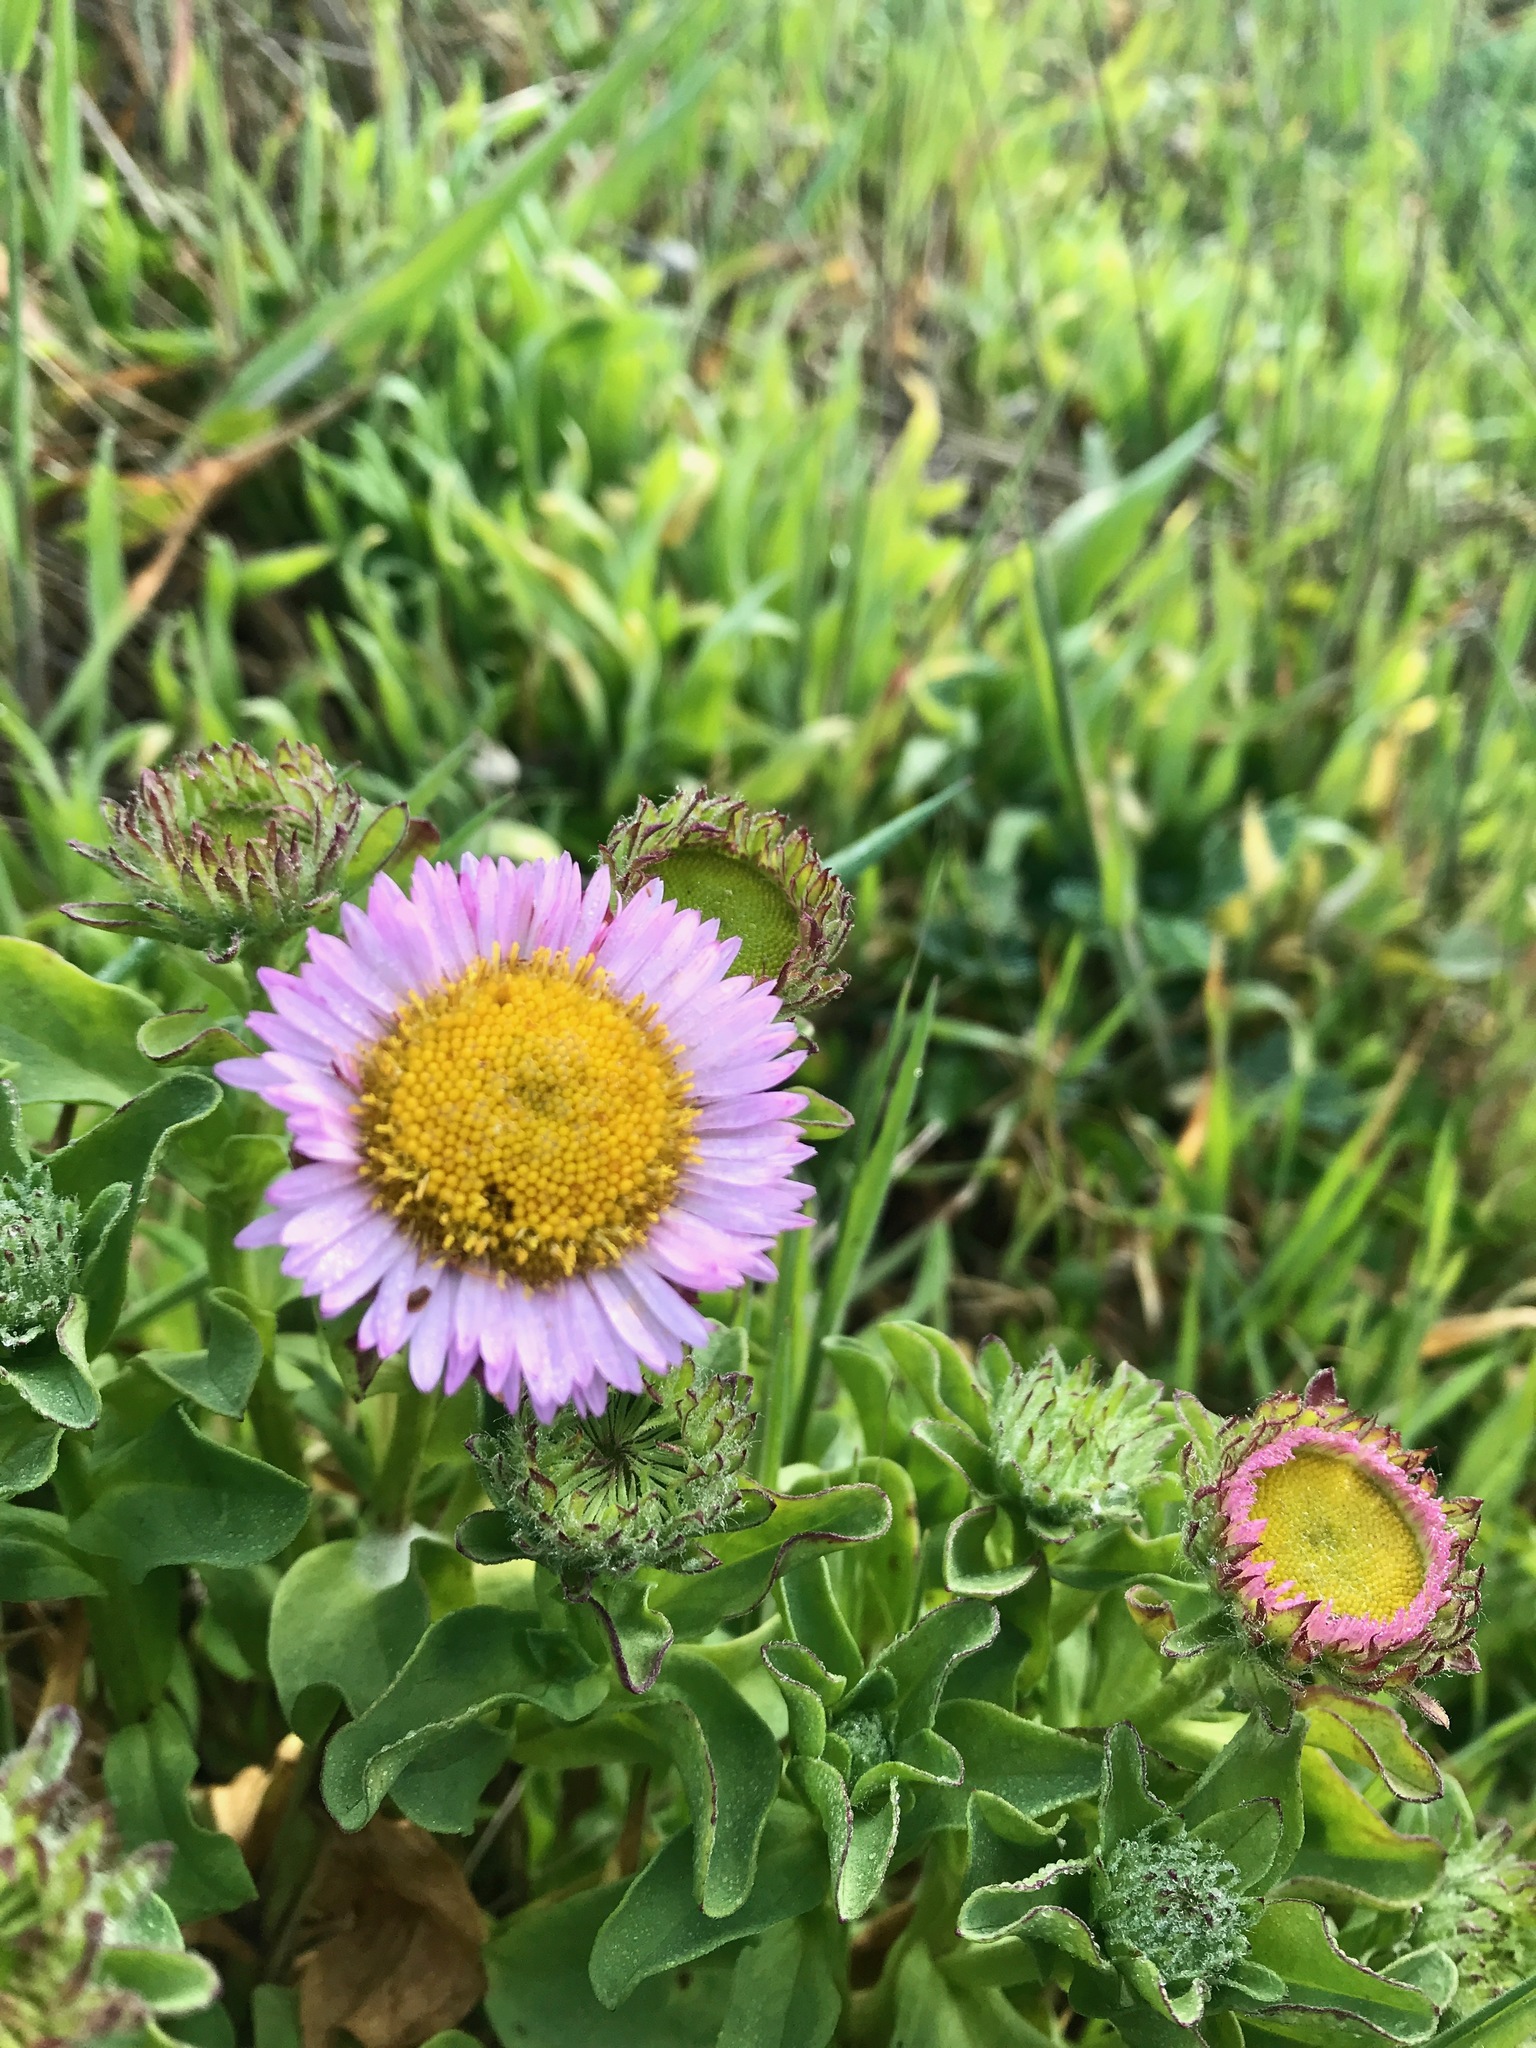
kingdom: Plantae
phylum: Tracheophyta
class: Magnoliopsida
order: Asterales
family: Asteraceae
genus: Erigeron
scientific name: Erigeron glaucus
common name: Seaside daisy
